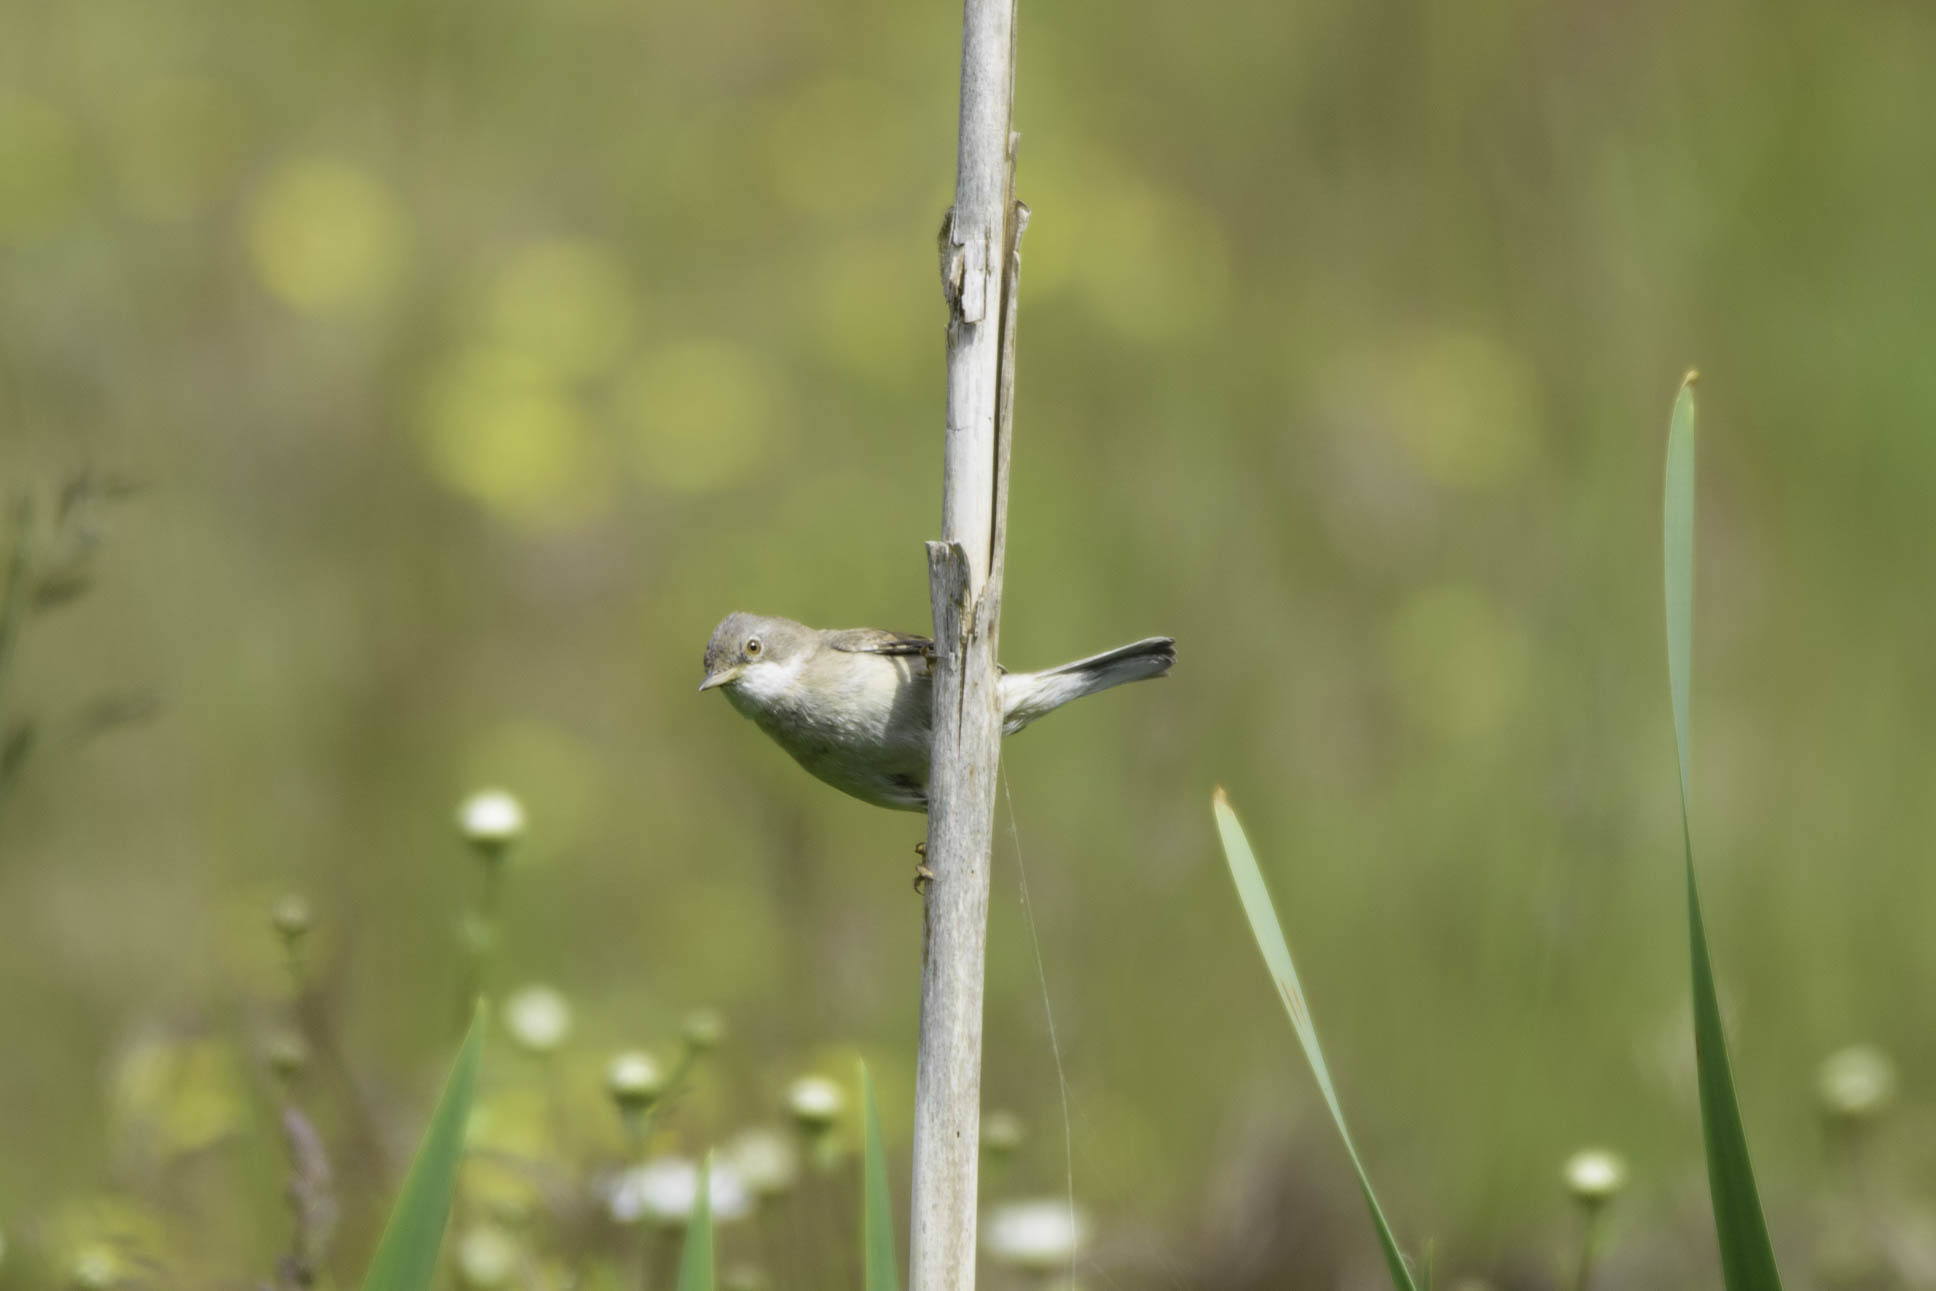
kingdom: Animalia
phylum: Chordata
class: Aves
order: Passeriformes
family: Sylviidae
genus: Sylvia
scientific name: Sylvia communis
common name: Common whitethroat
